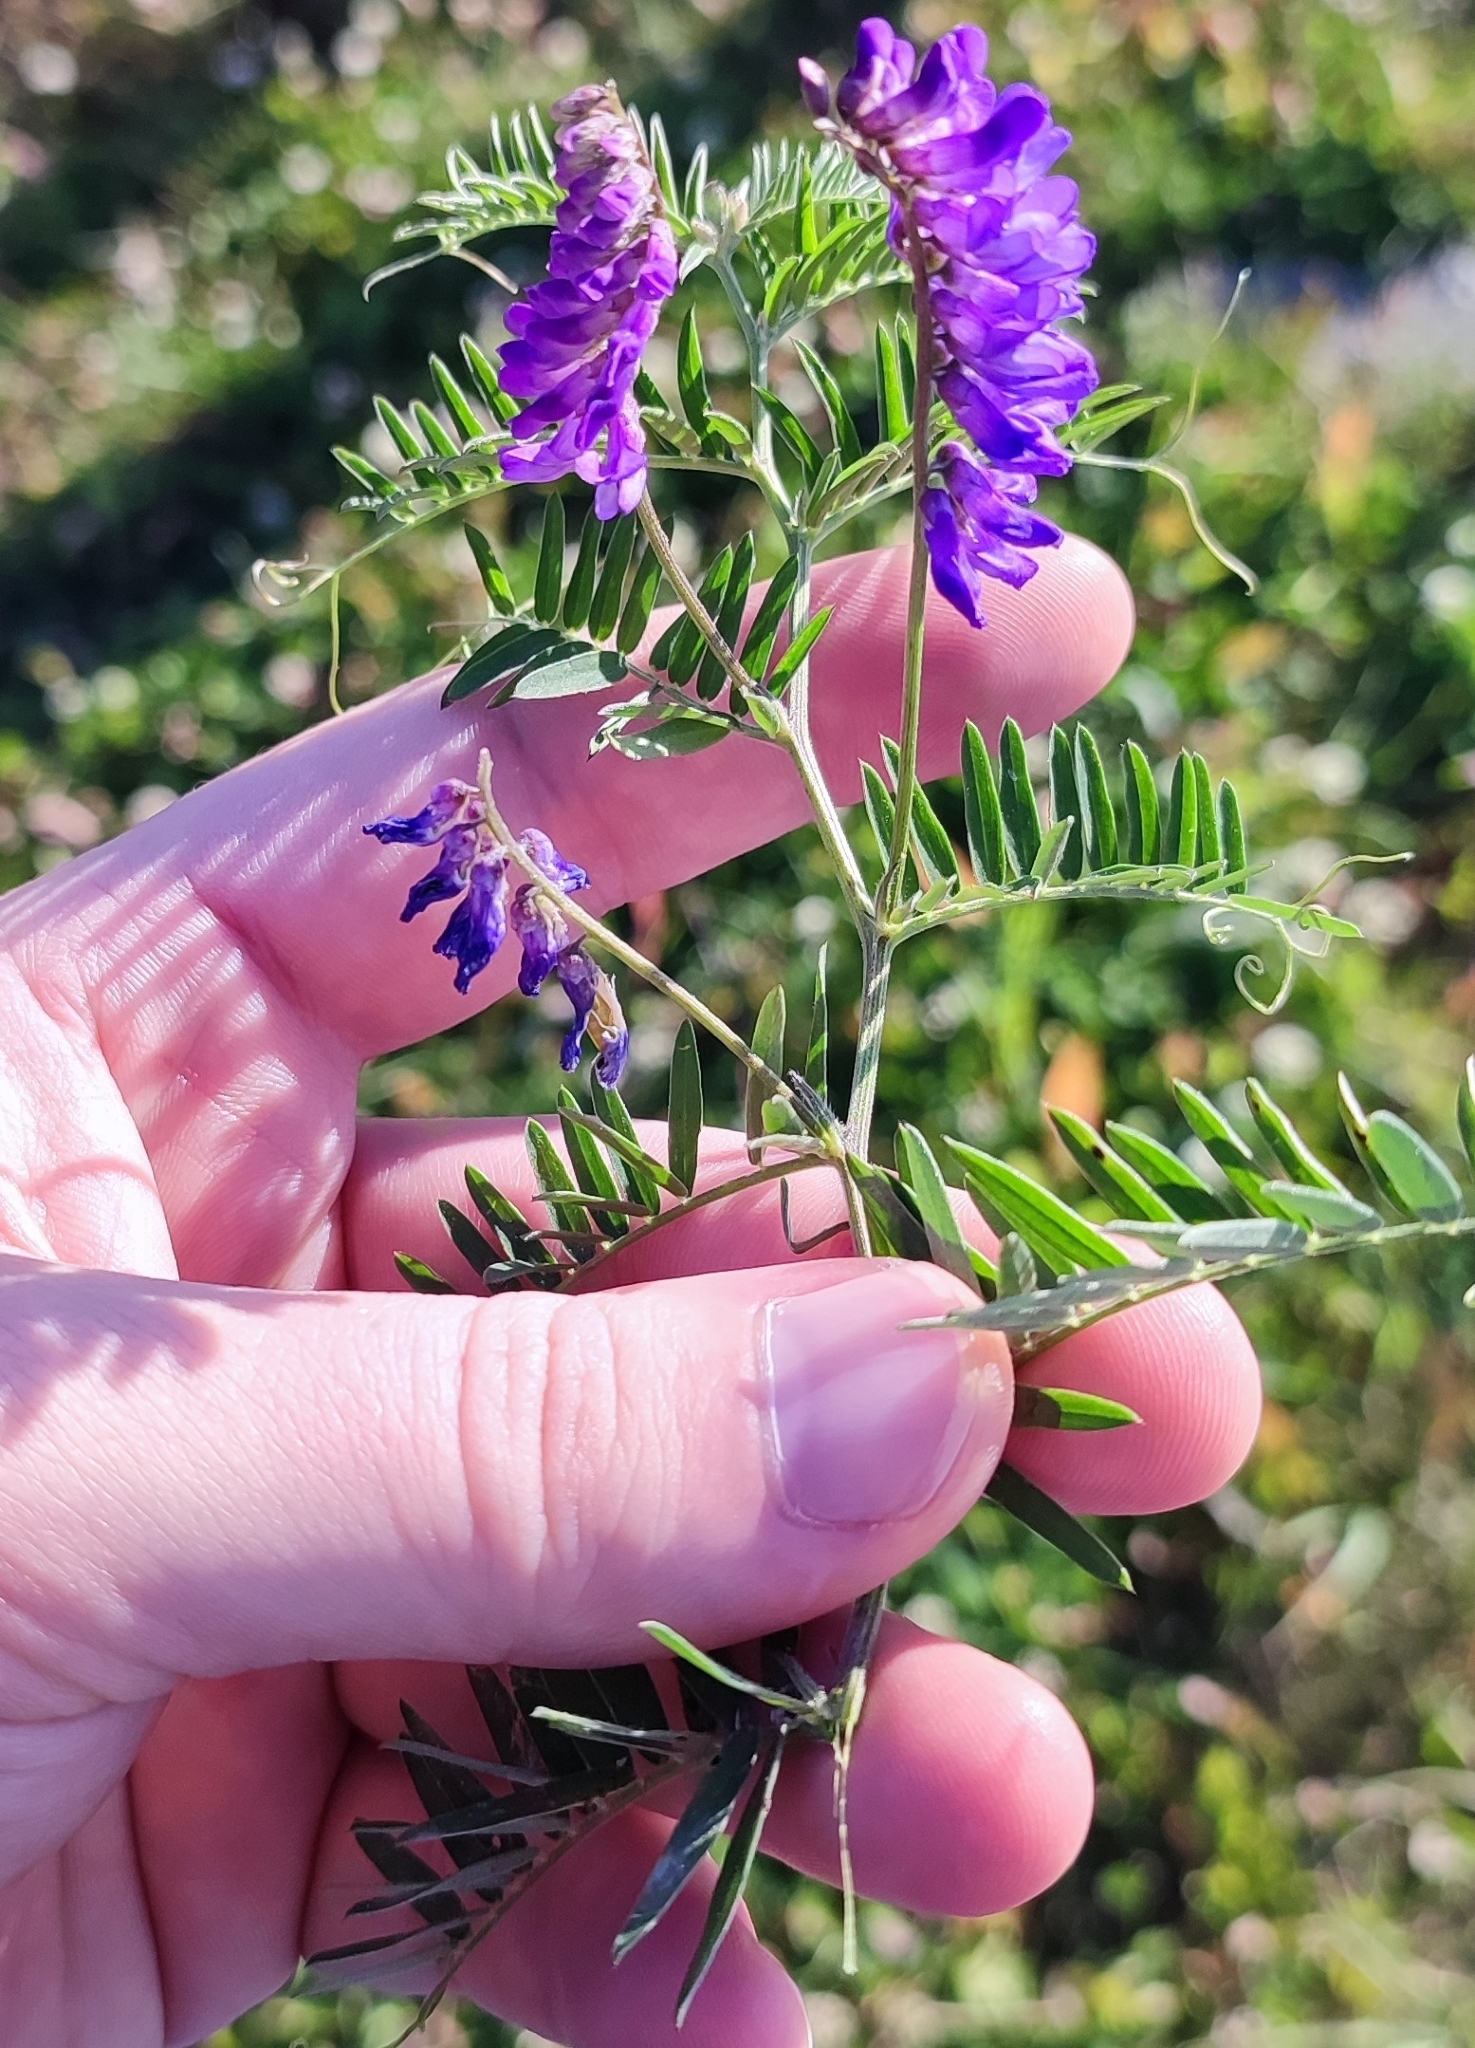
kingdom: Plantae
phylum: Tracheophyta
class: Magnoliopsida
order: Fabales
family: Fabaceae
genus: Vicia
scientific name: Vicia cracca
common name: Bird vetch
